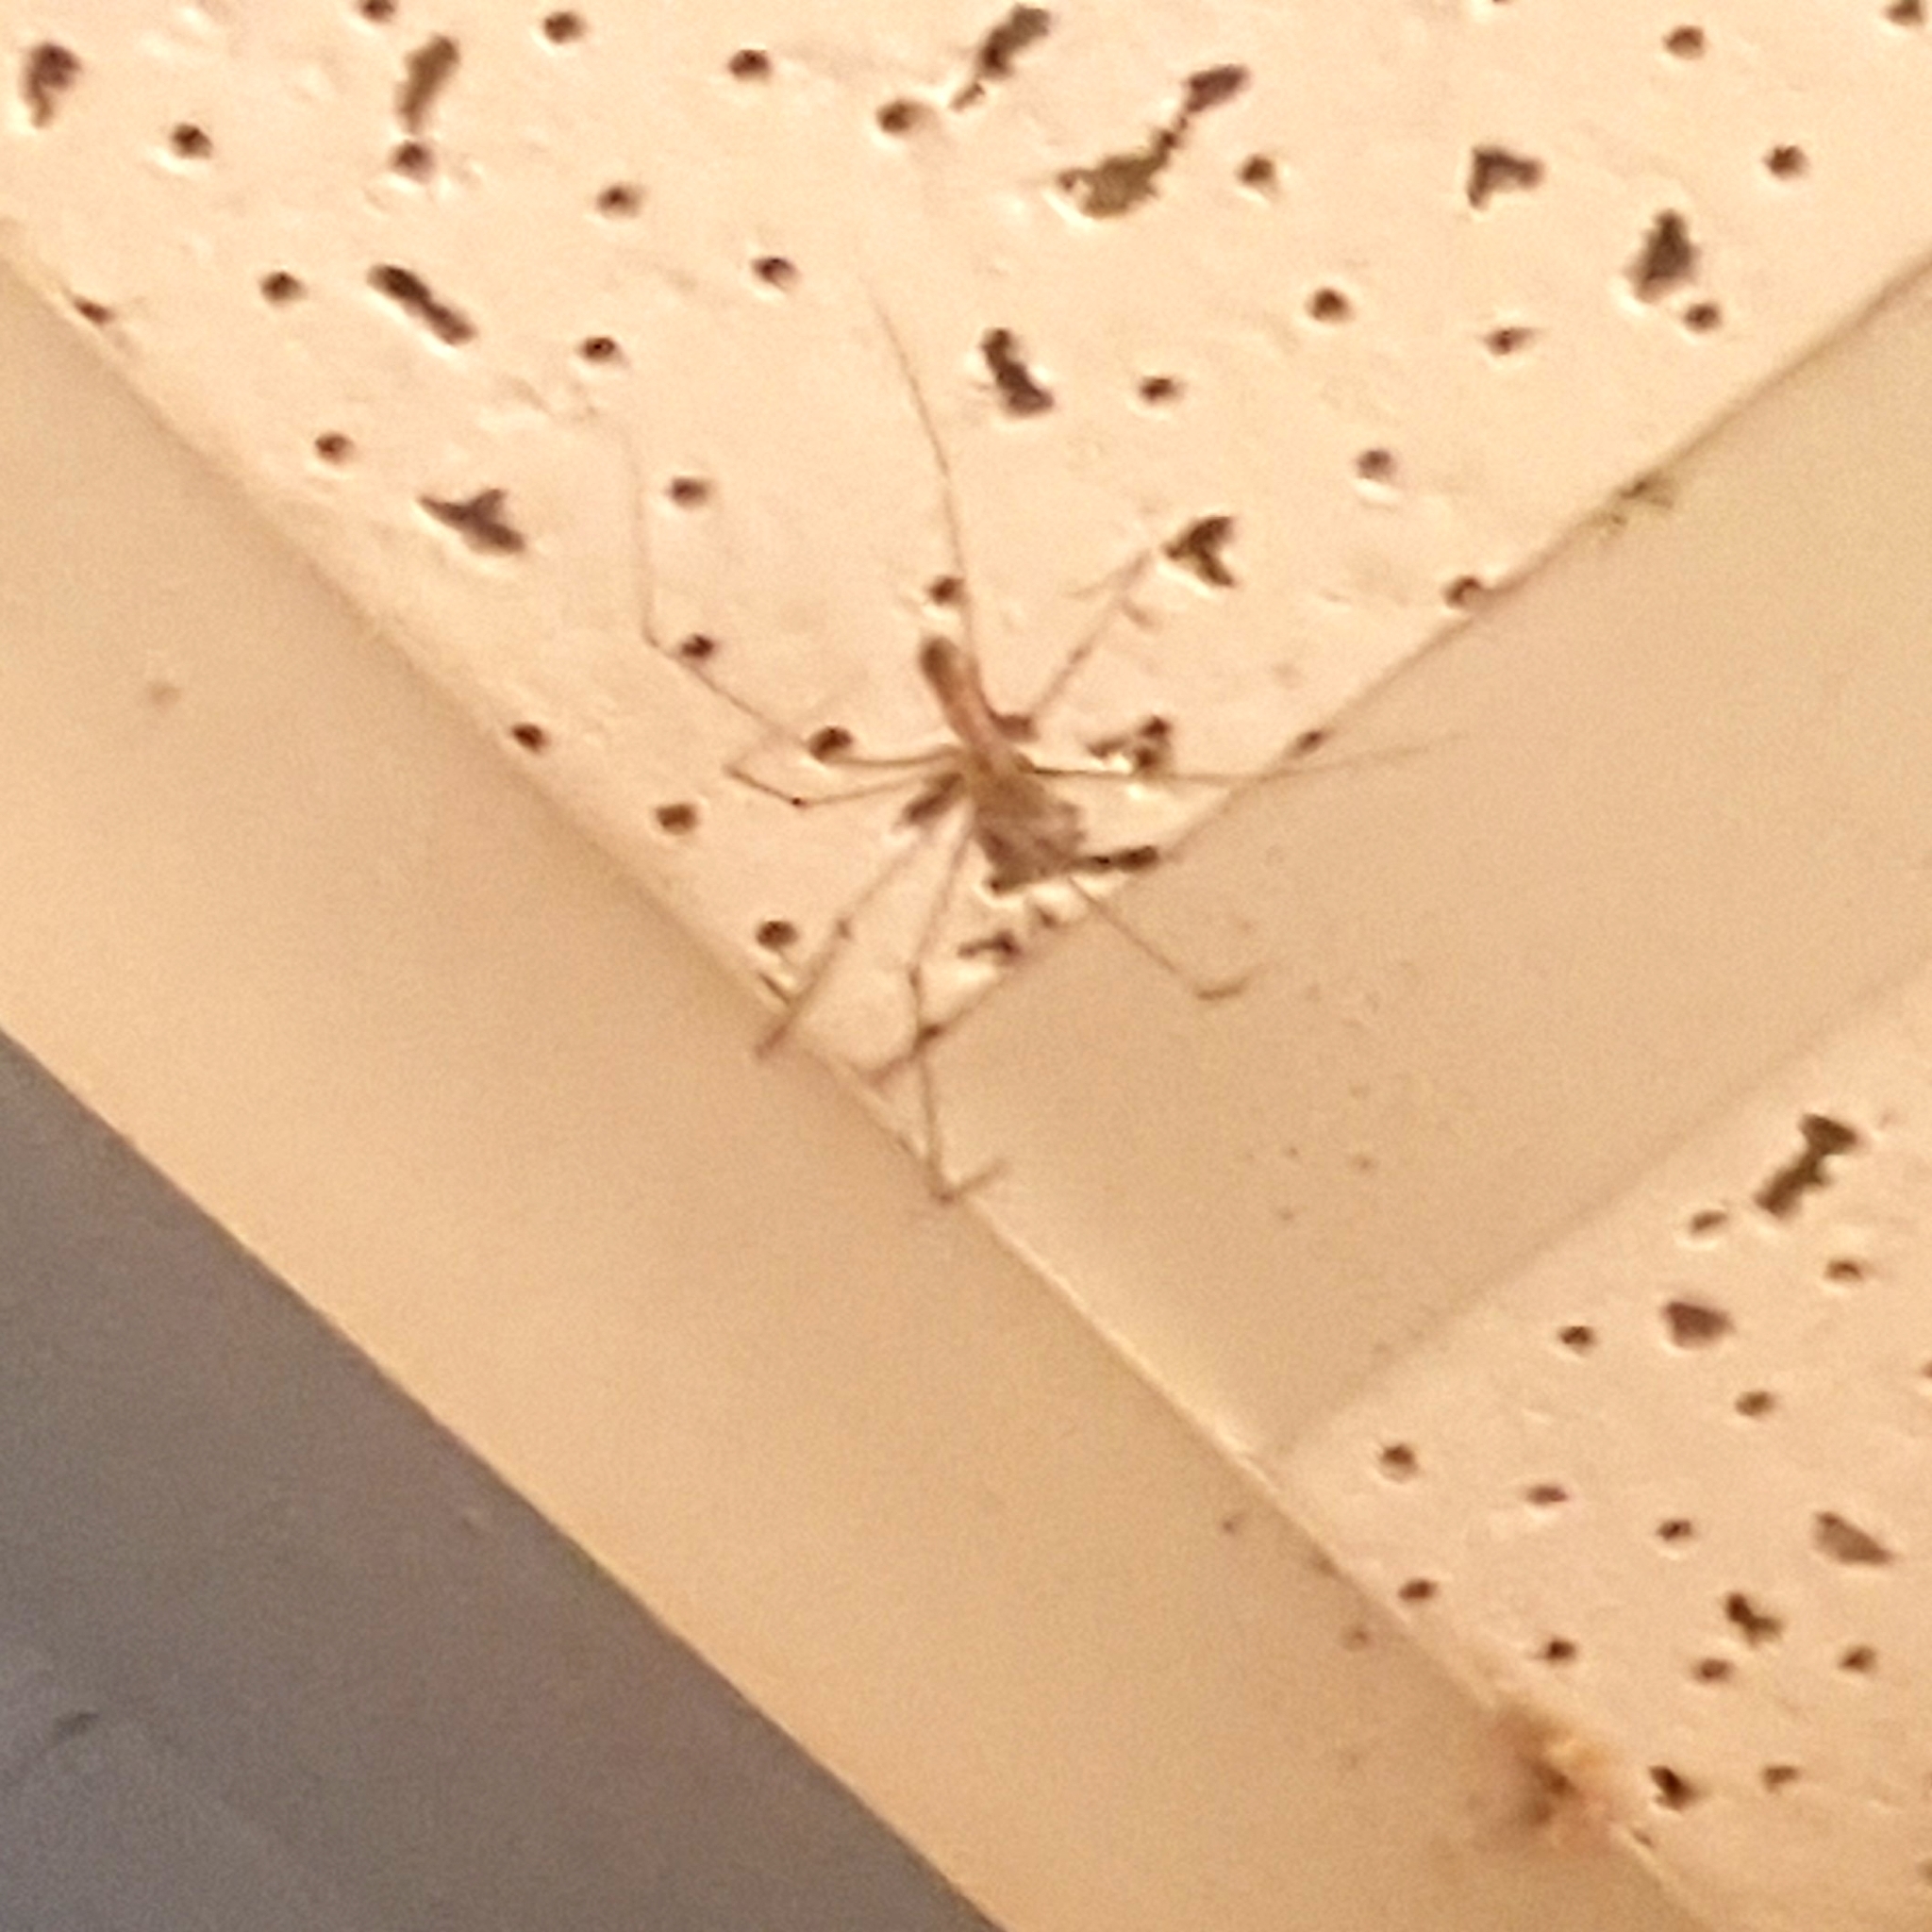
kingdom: Animalia
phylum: Arthropoda
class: Arachnida
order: Araneae
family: Pholcidae
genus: Pholcus
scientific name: Pholcus phalangioides
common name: Longbodied cellar spider
